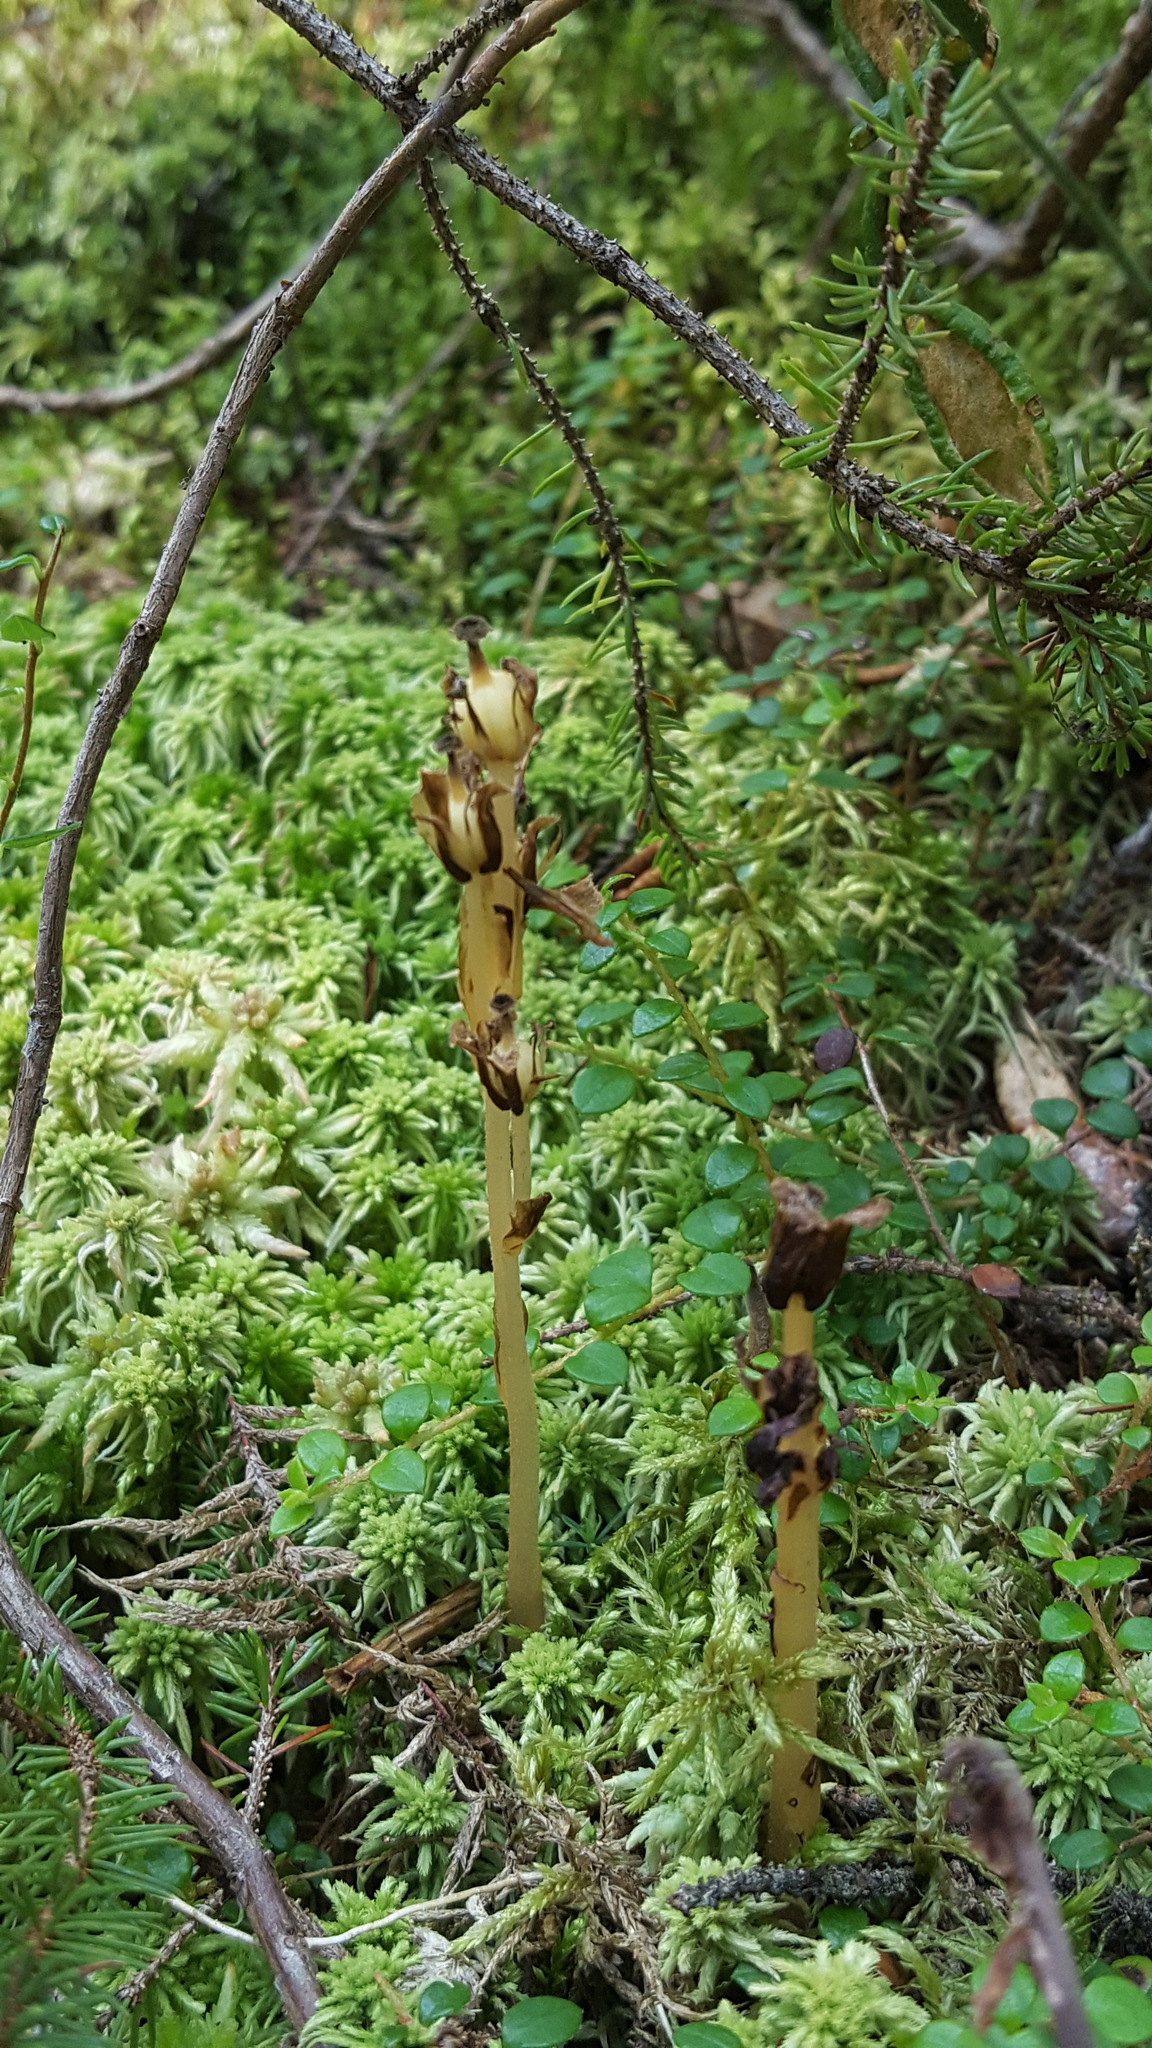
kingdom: Plantae
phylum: Tracheophyta
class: Magnoliopsida
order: Ericales
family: Ericaceae
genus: Hypopitys
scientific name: Hypopitys monotropa
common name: Yellow bird's-nest
